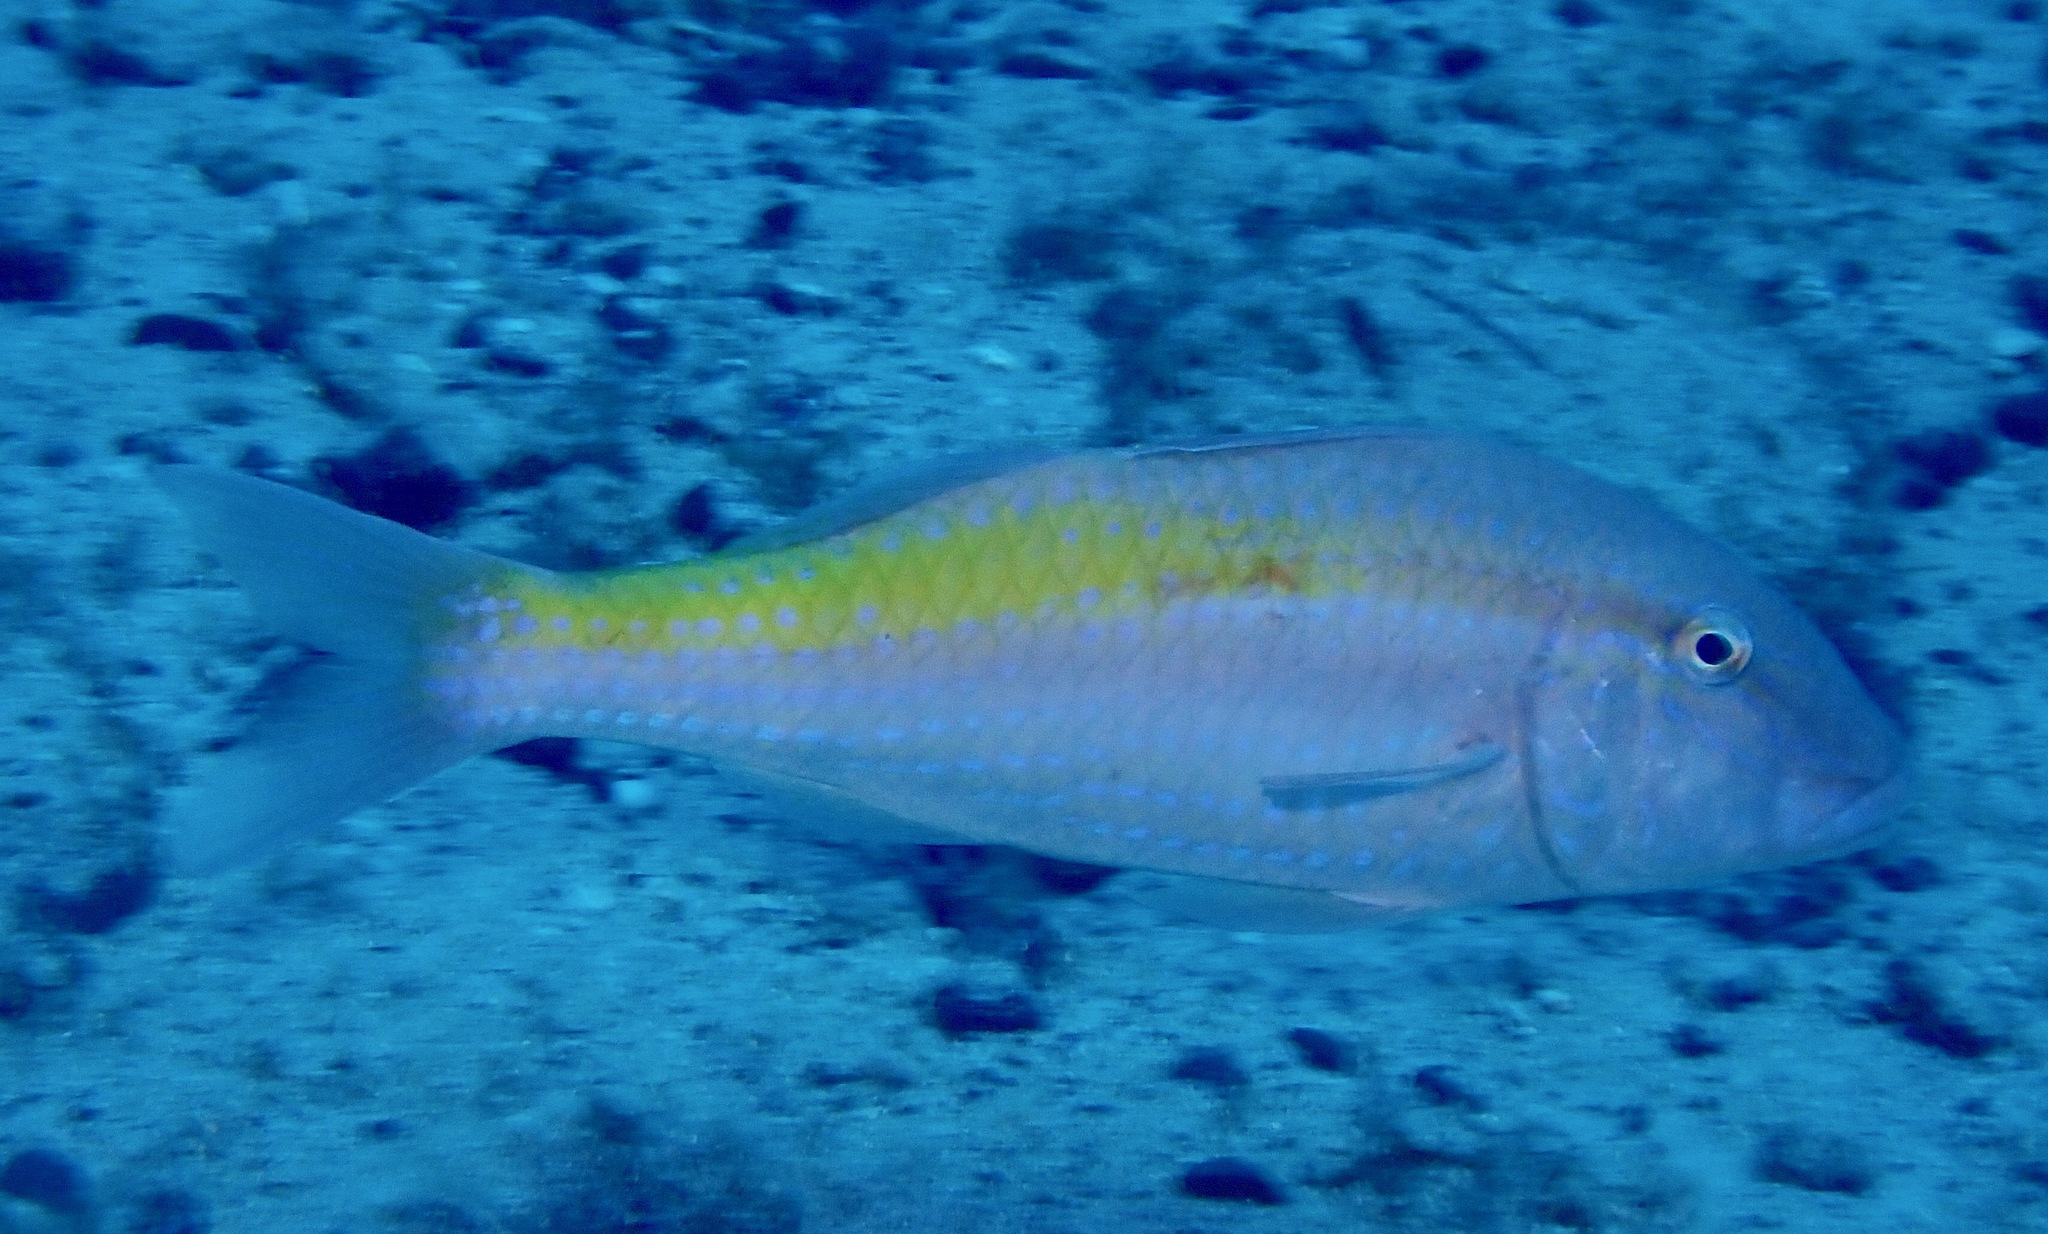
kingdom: Animalia
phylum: Chordata
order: Perciformes
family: Mullidae
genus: Parupeneus
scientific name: Parupeneus heptacanthus
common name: Cinnabar goatfish
